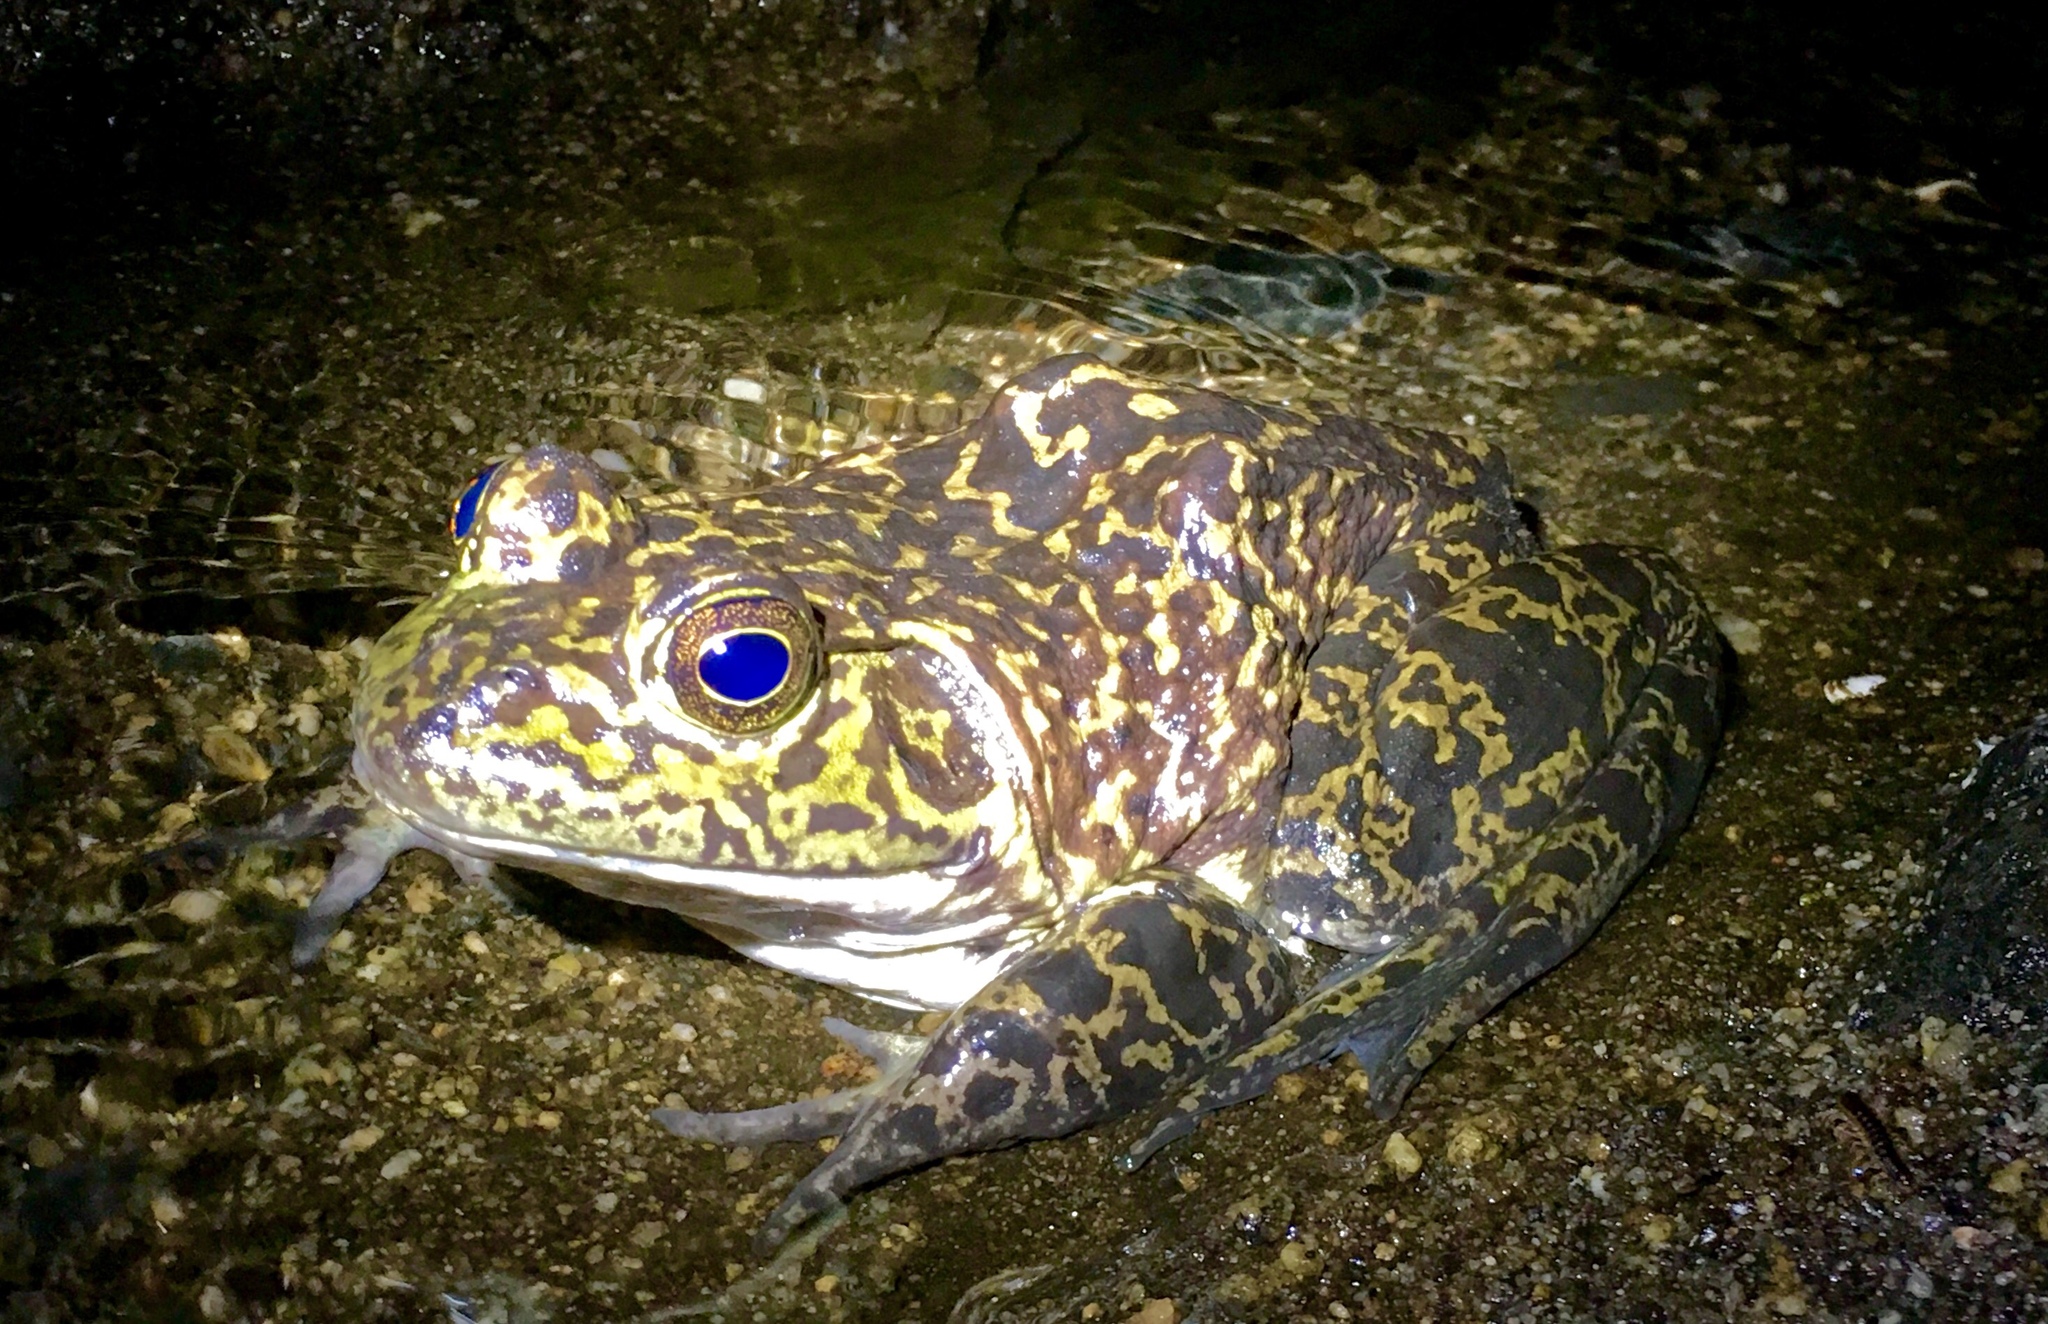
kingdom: Animalia
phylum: Chordata
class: Amphibia
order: Anura
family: Ranidae
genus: Lithobates
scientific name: Lithobates catesbeianus
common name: American bullfrog
